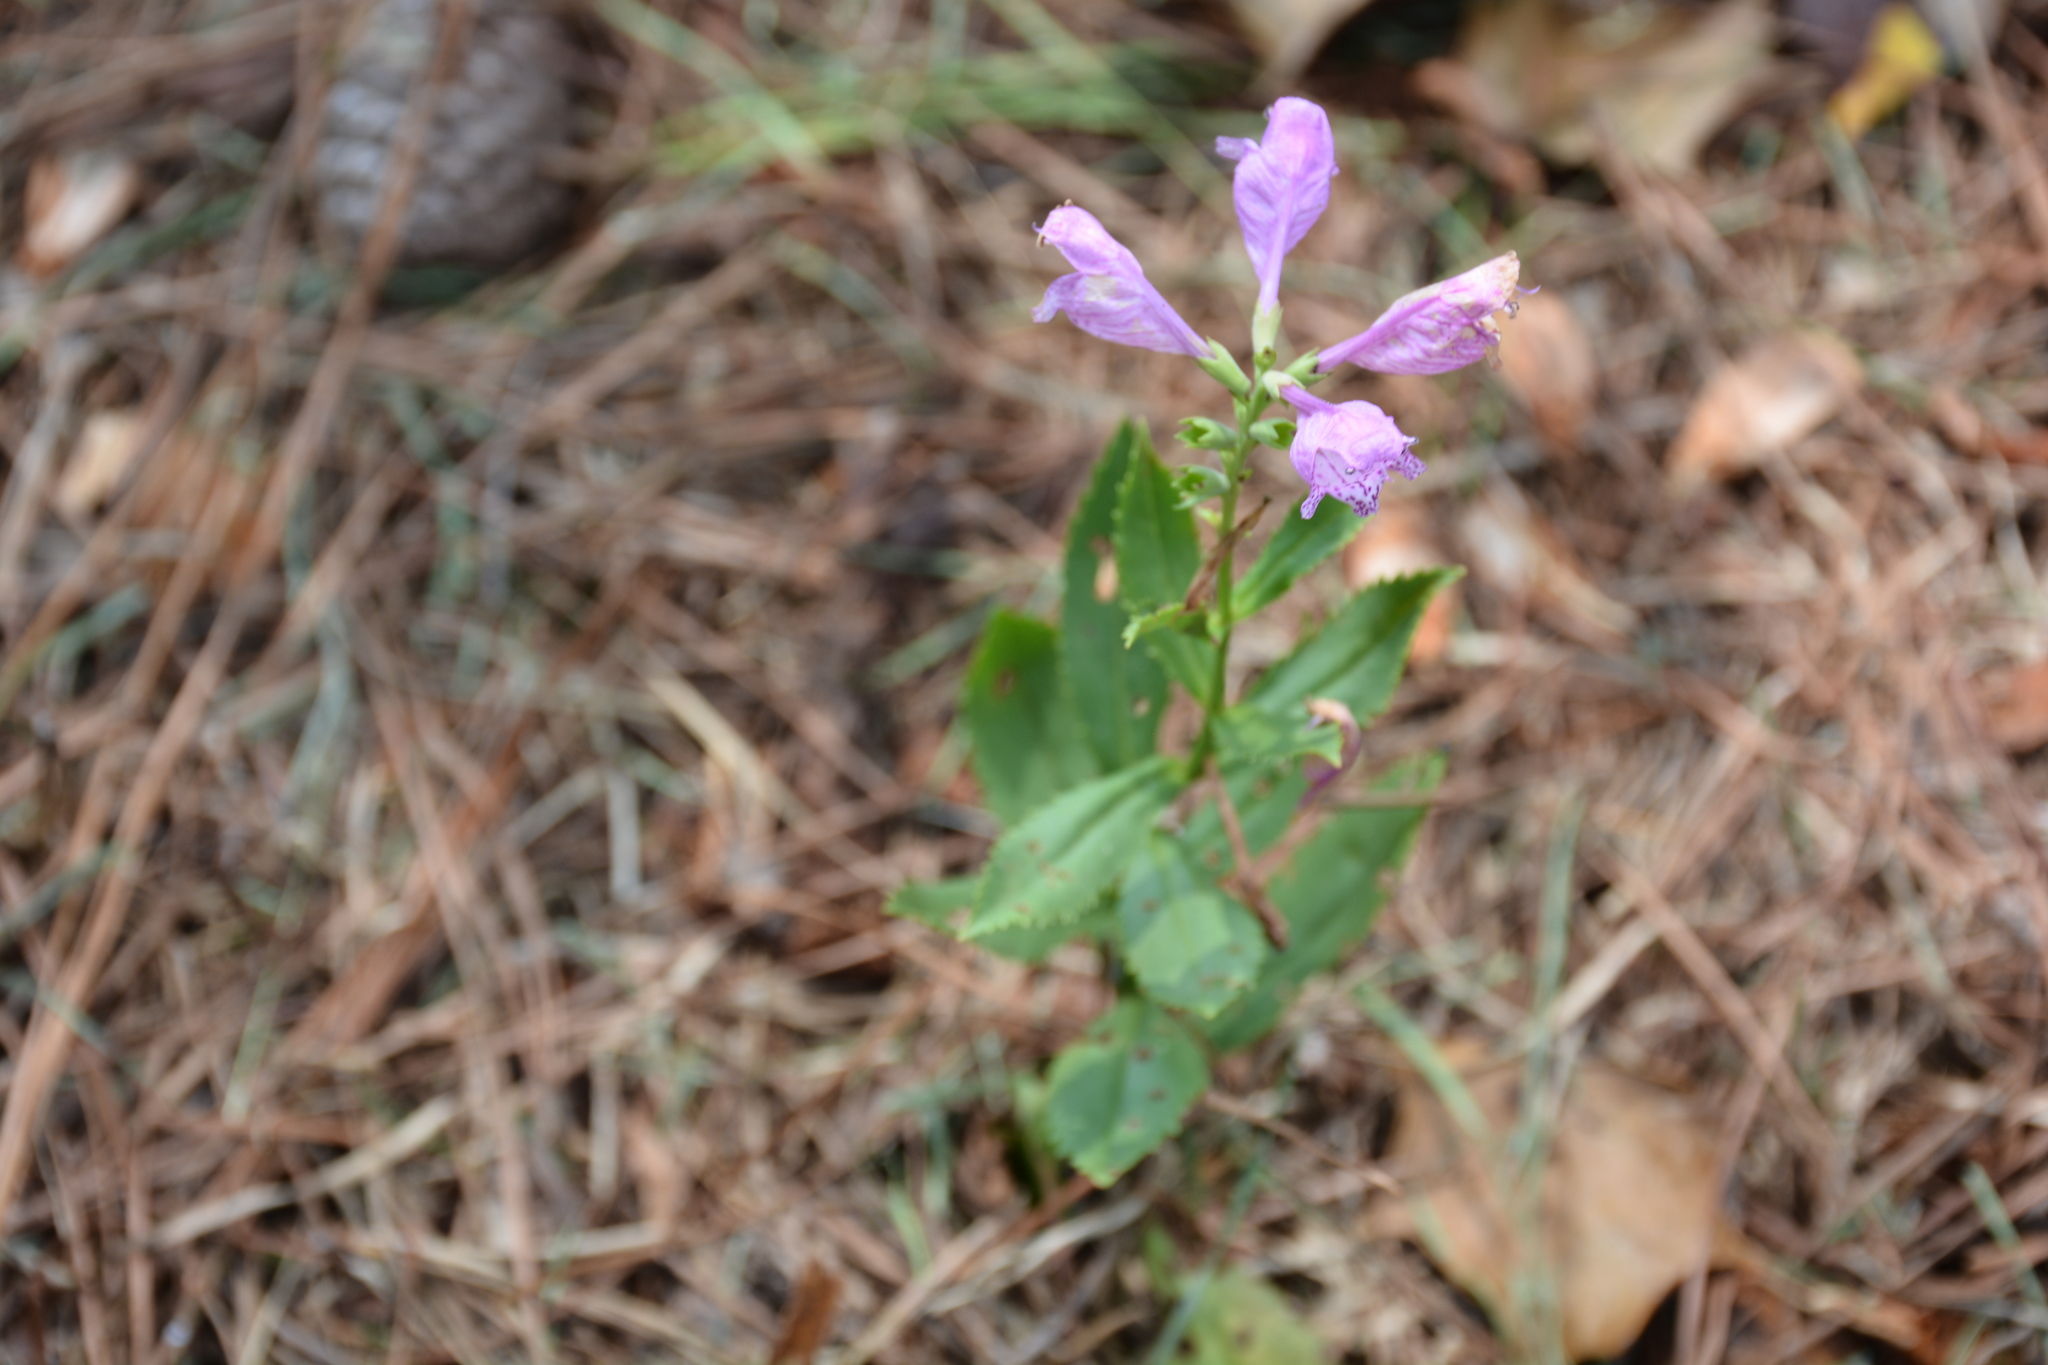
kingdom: Plantae
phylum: Tracheophyta
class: Magnoliopsida
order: Lamiales
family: Lamiaceae
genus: Physostegia
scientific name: Physostegia virginiana
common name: Obedient-plant
